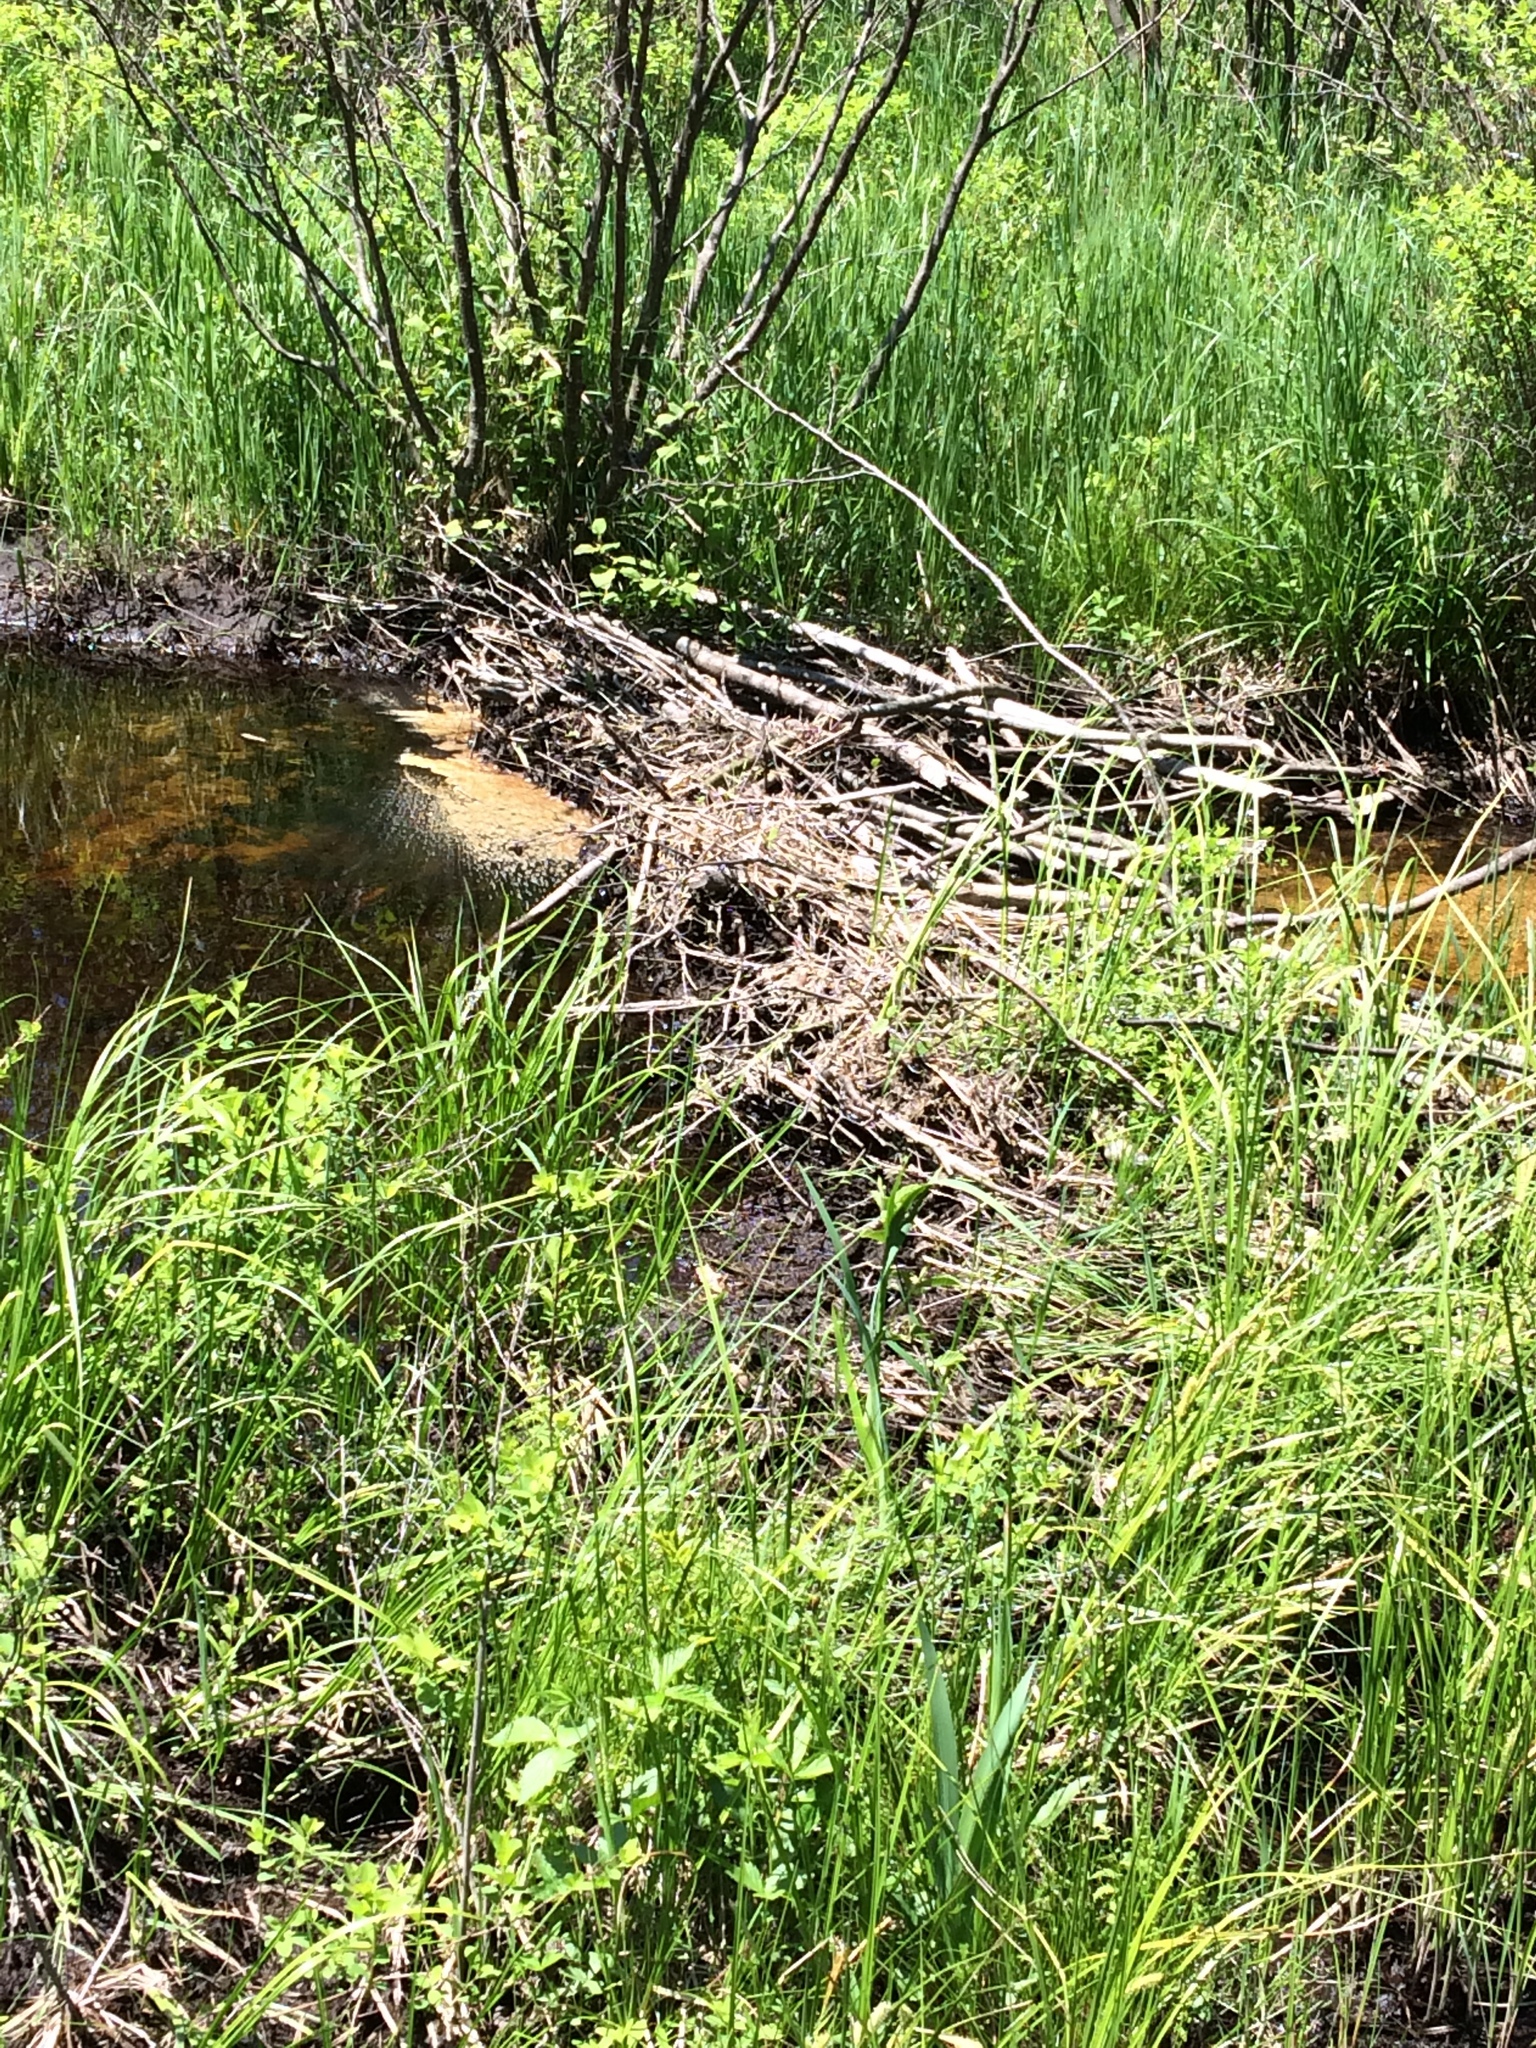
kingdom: Animalia
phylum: Chordata
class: Mammalia
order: Rodentia
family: Castoridae
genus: Castor
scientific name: Castor canadensis
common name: American beaver
